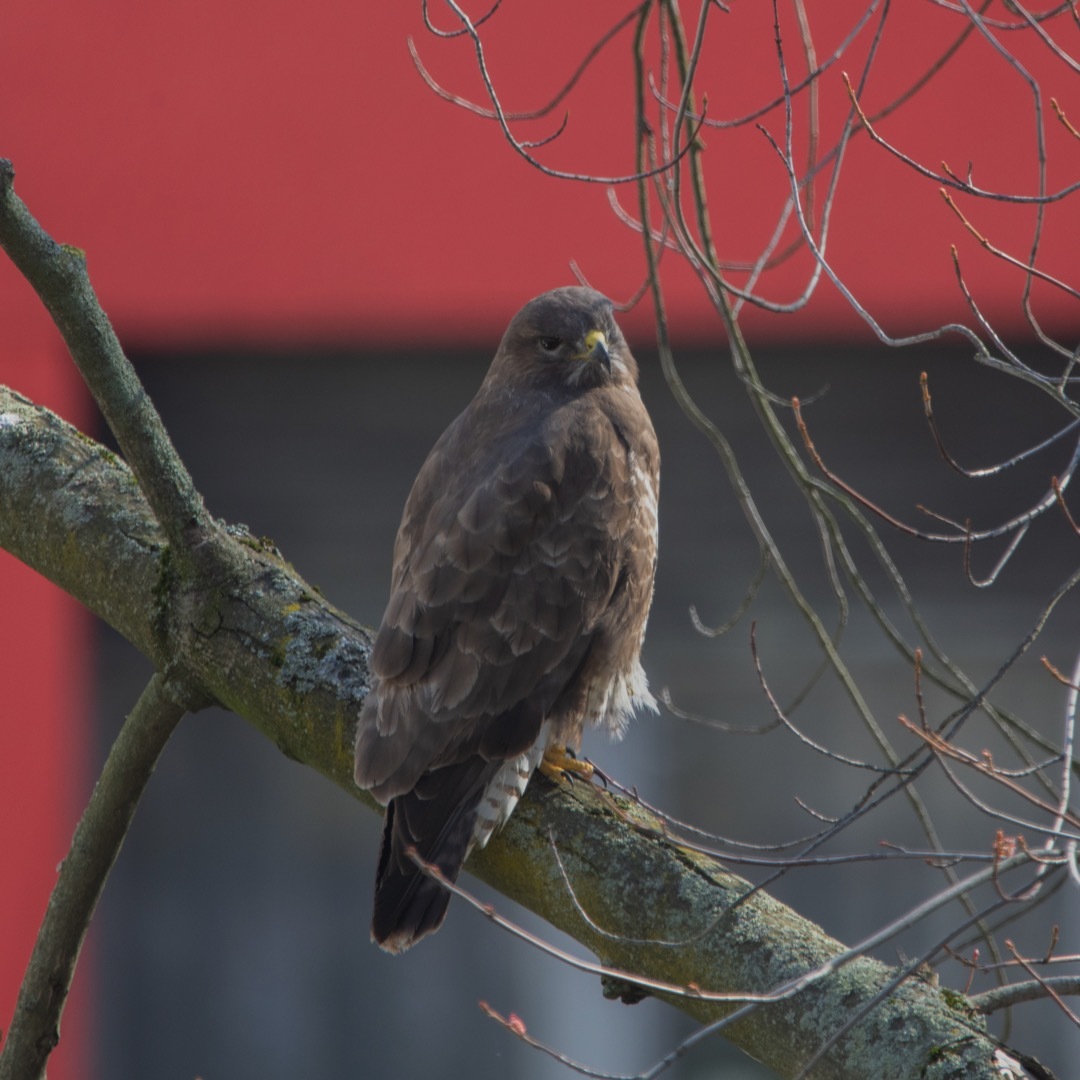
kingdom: Animalia
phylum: Chordata
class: Aves
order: Accipitriformes
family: Accipitridae
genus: Buteo
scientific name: Buteo buteo
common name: Common buzzard
